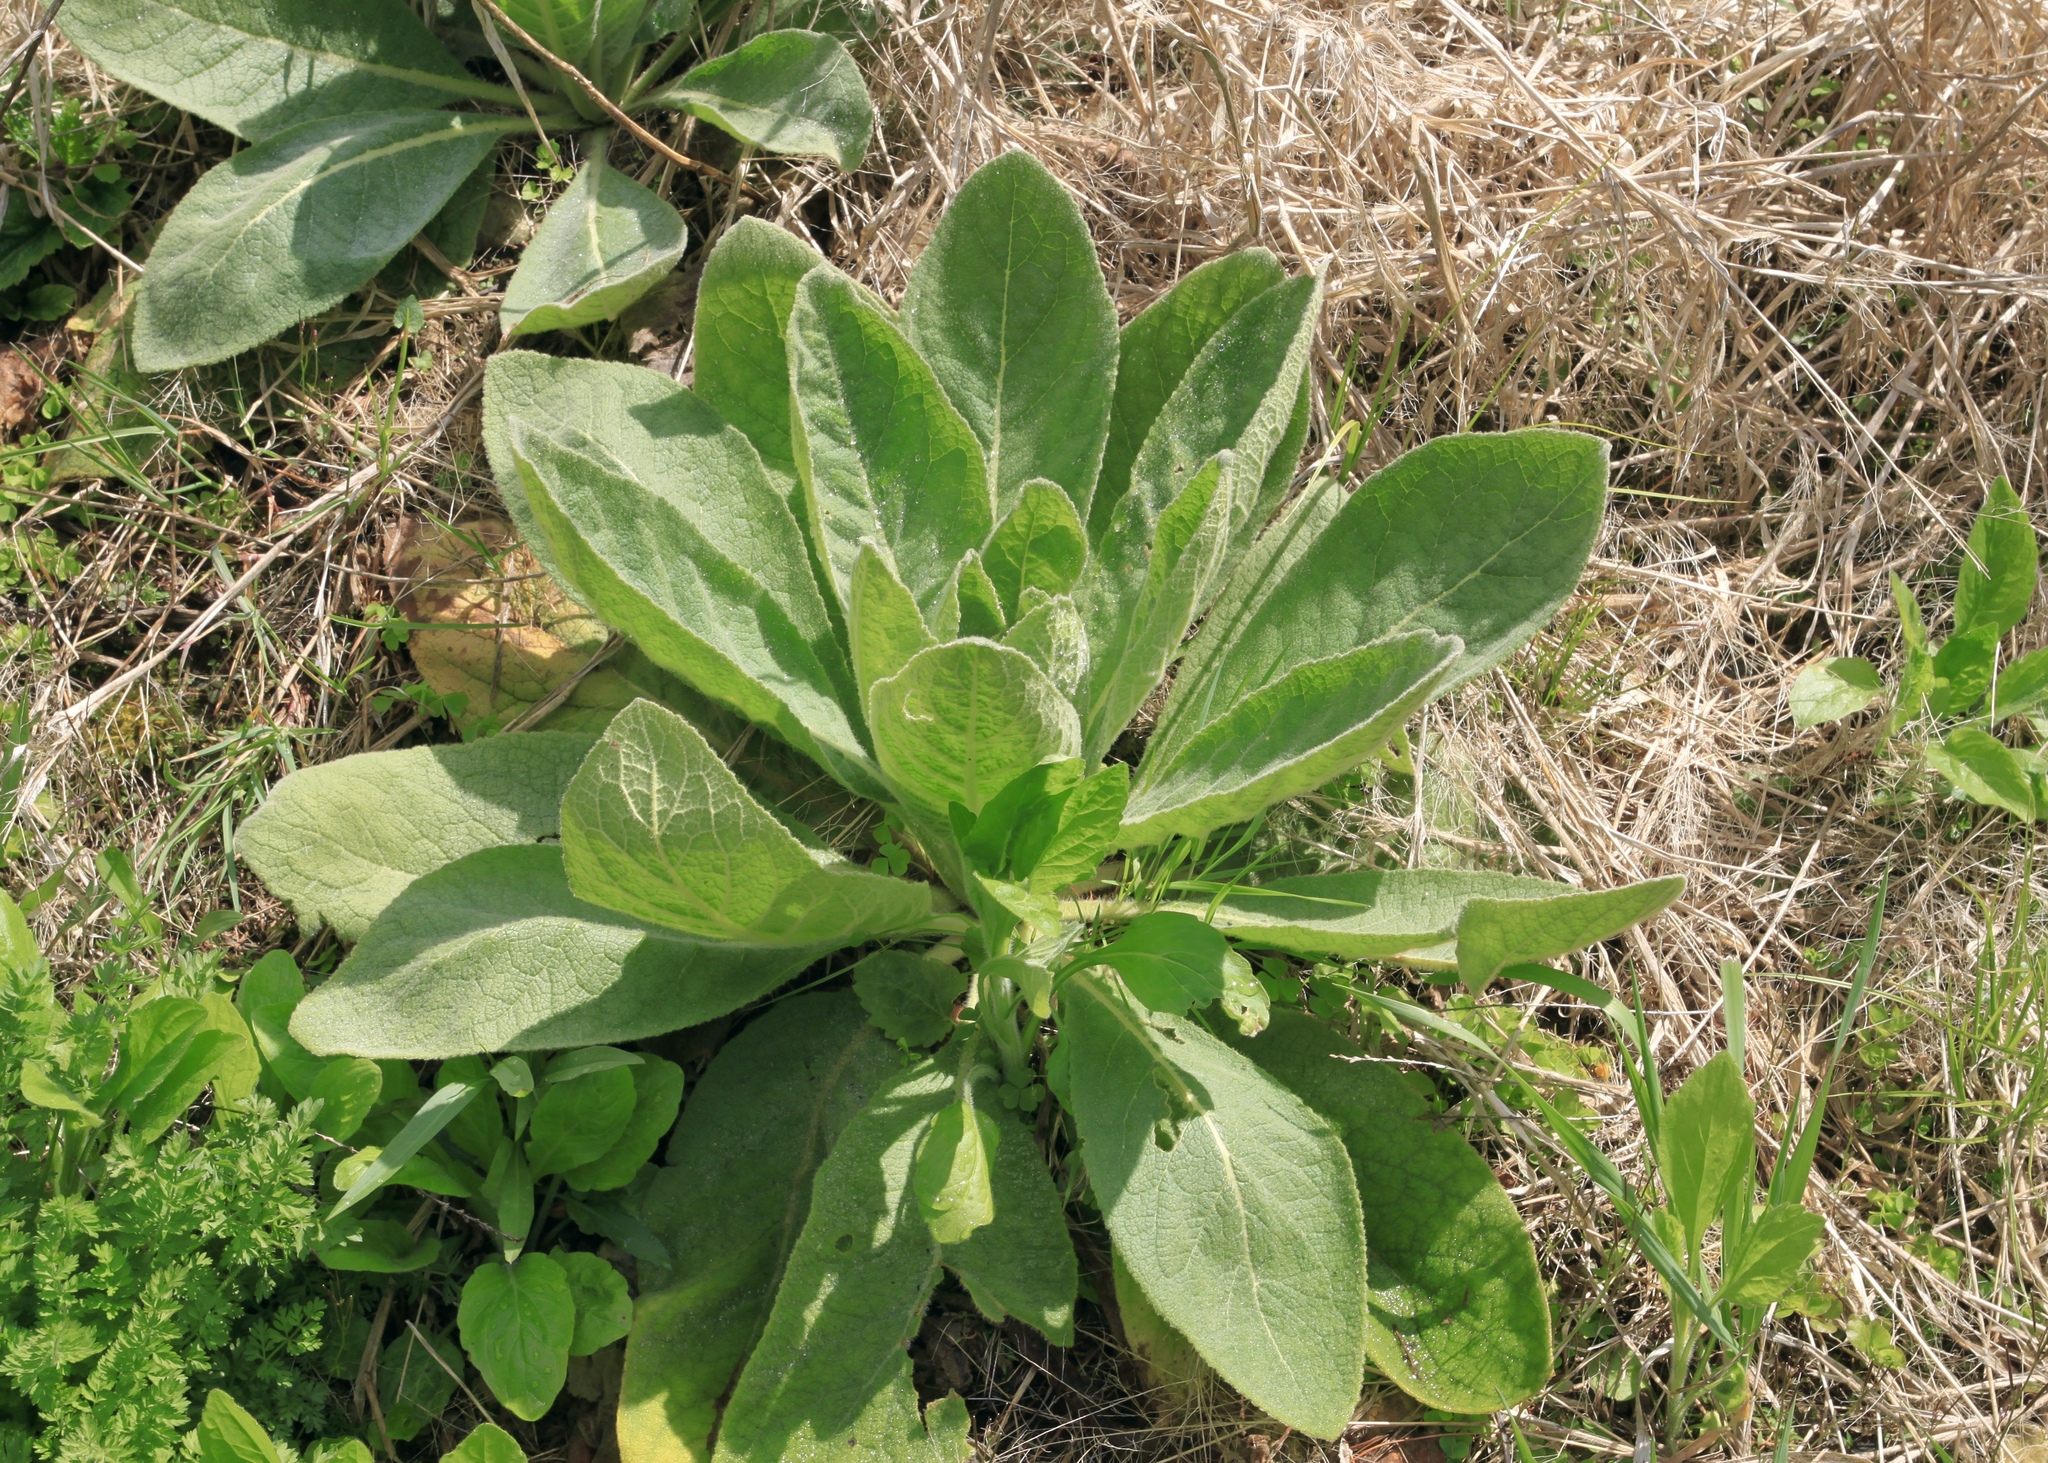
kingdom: Plantae
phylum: Tracheophyta
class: Magnoliopsida
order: Lamiales
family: Scrophulariaceae
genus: Verbascum
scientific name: Verbascum thapsus
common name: Common mullein
